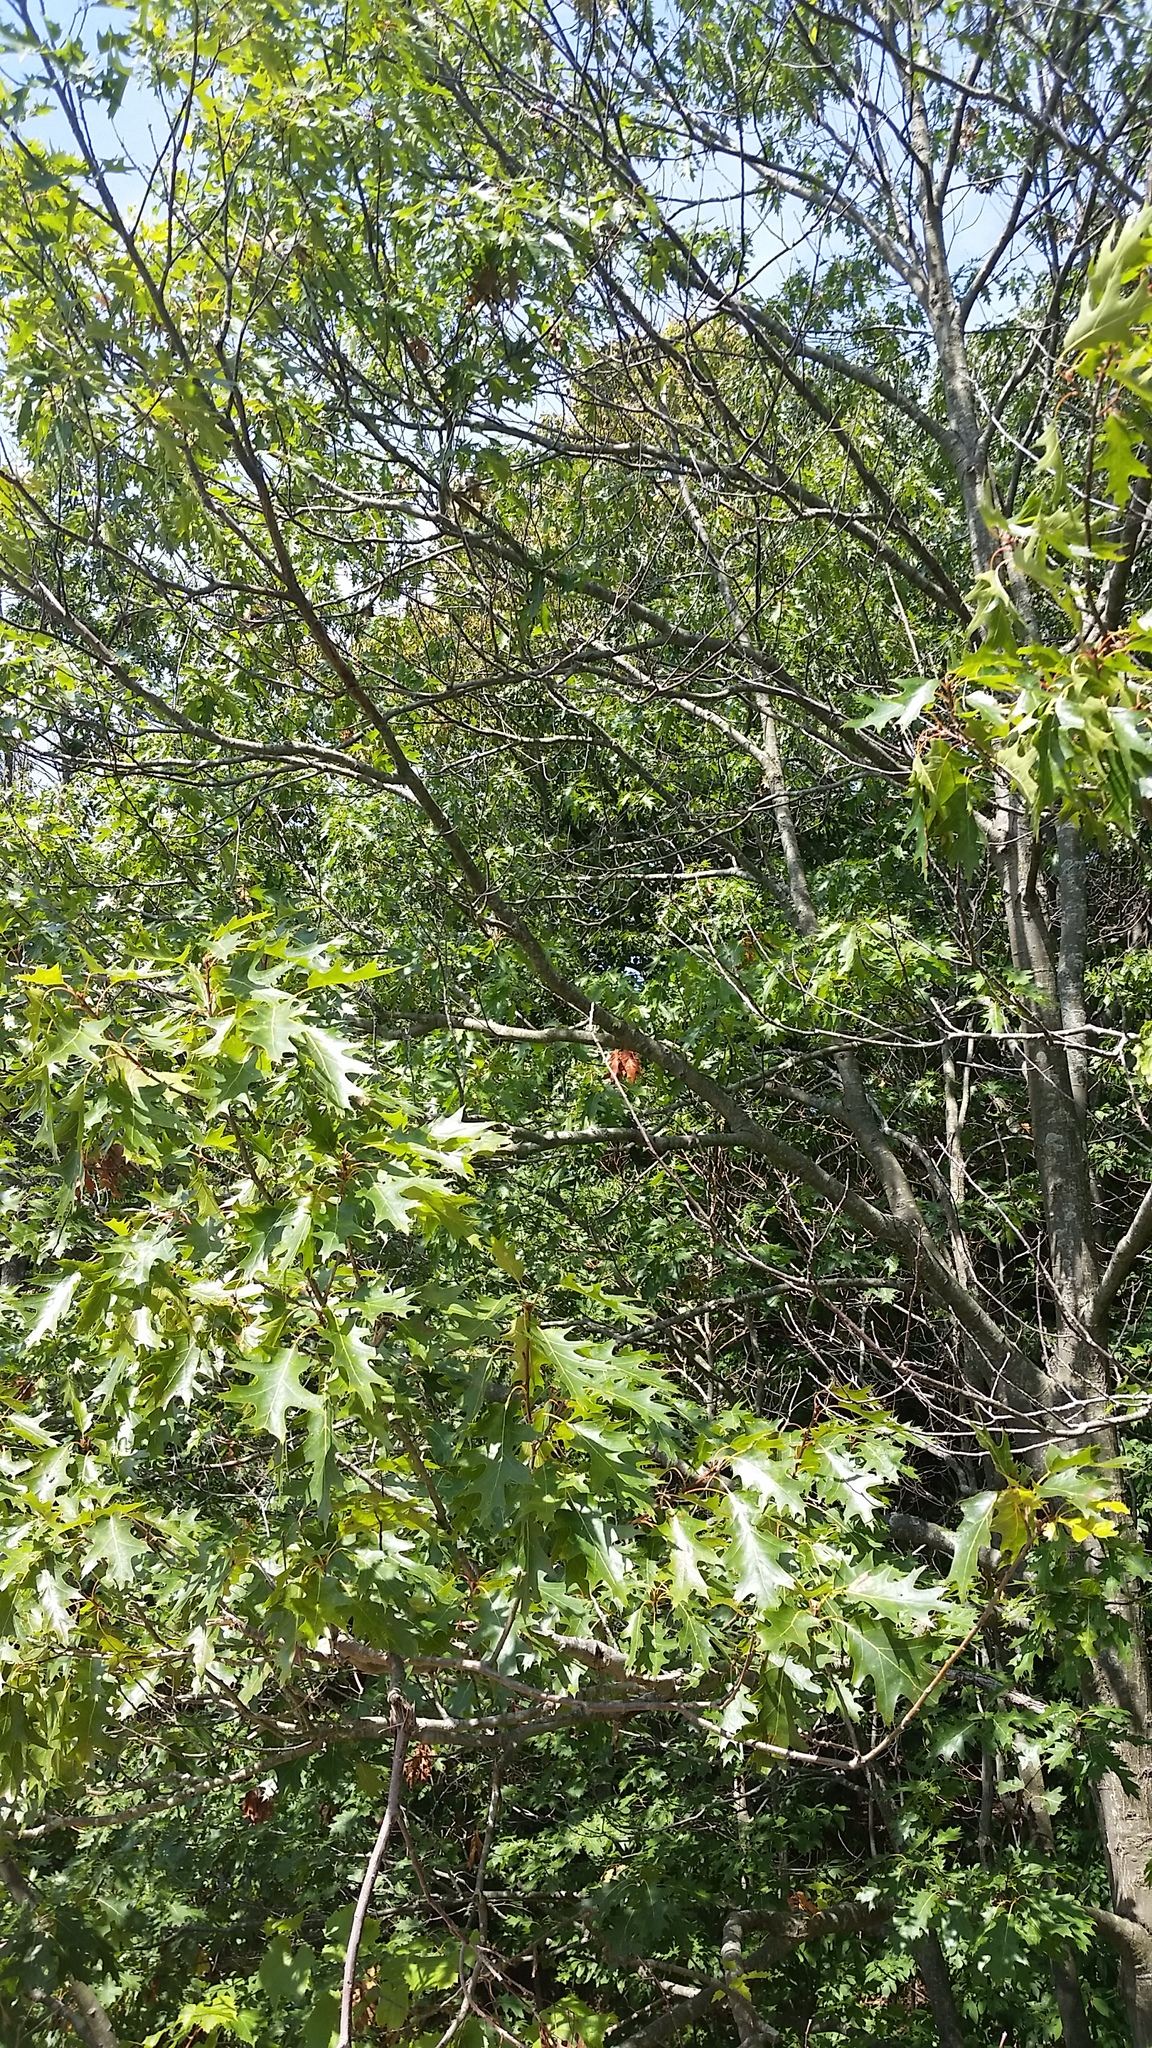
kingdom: Plantae
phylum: Tracheophyta
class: Magnoliopsida
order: Fagales
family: Fagaceae
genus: Quercus
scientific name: Quercus rubra
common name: Red oak
